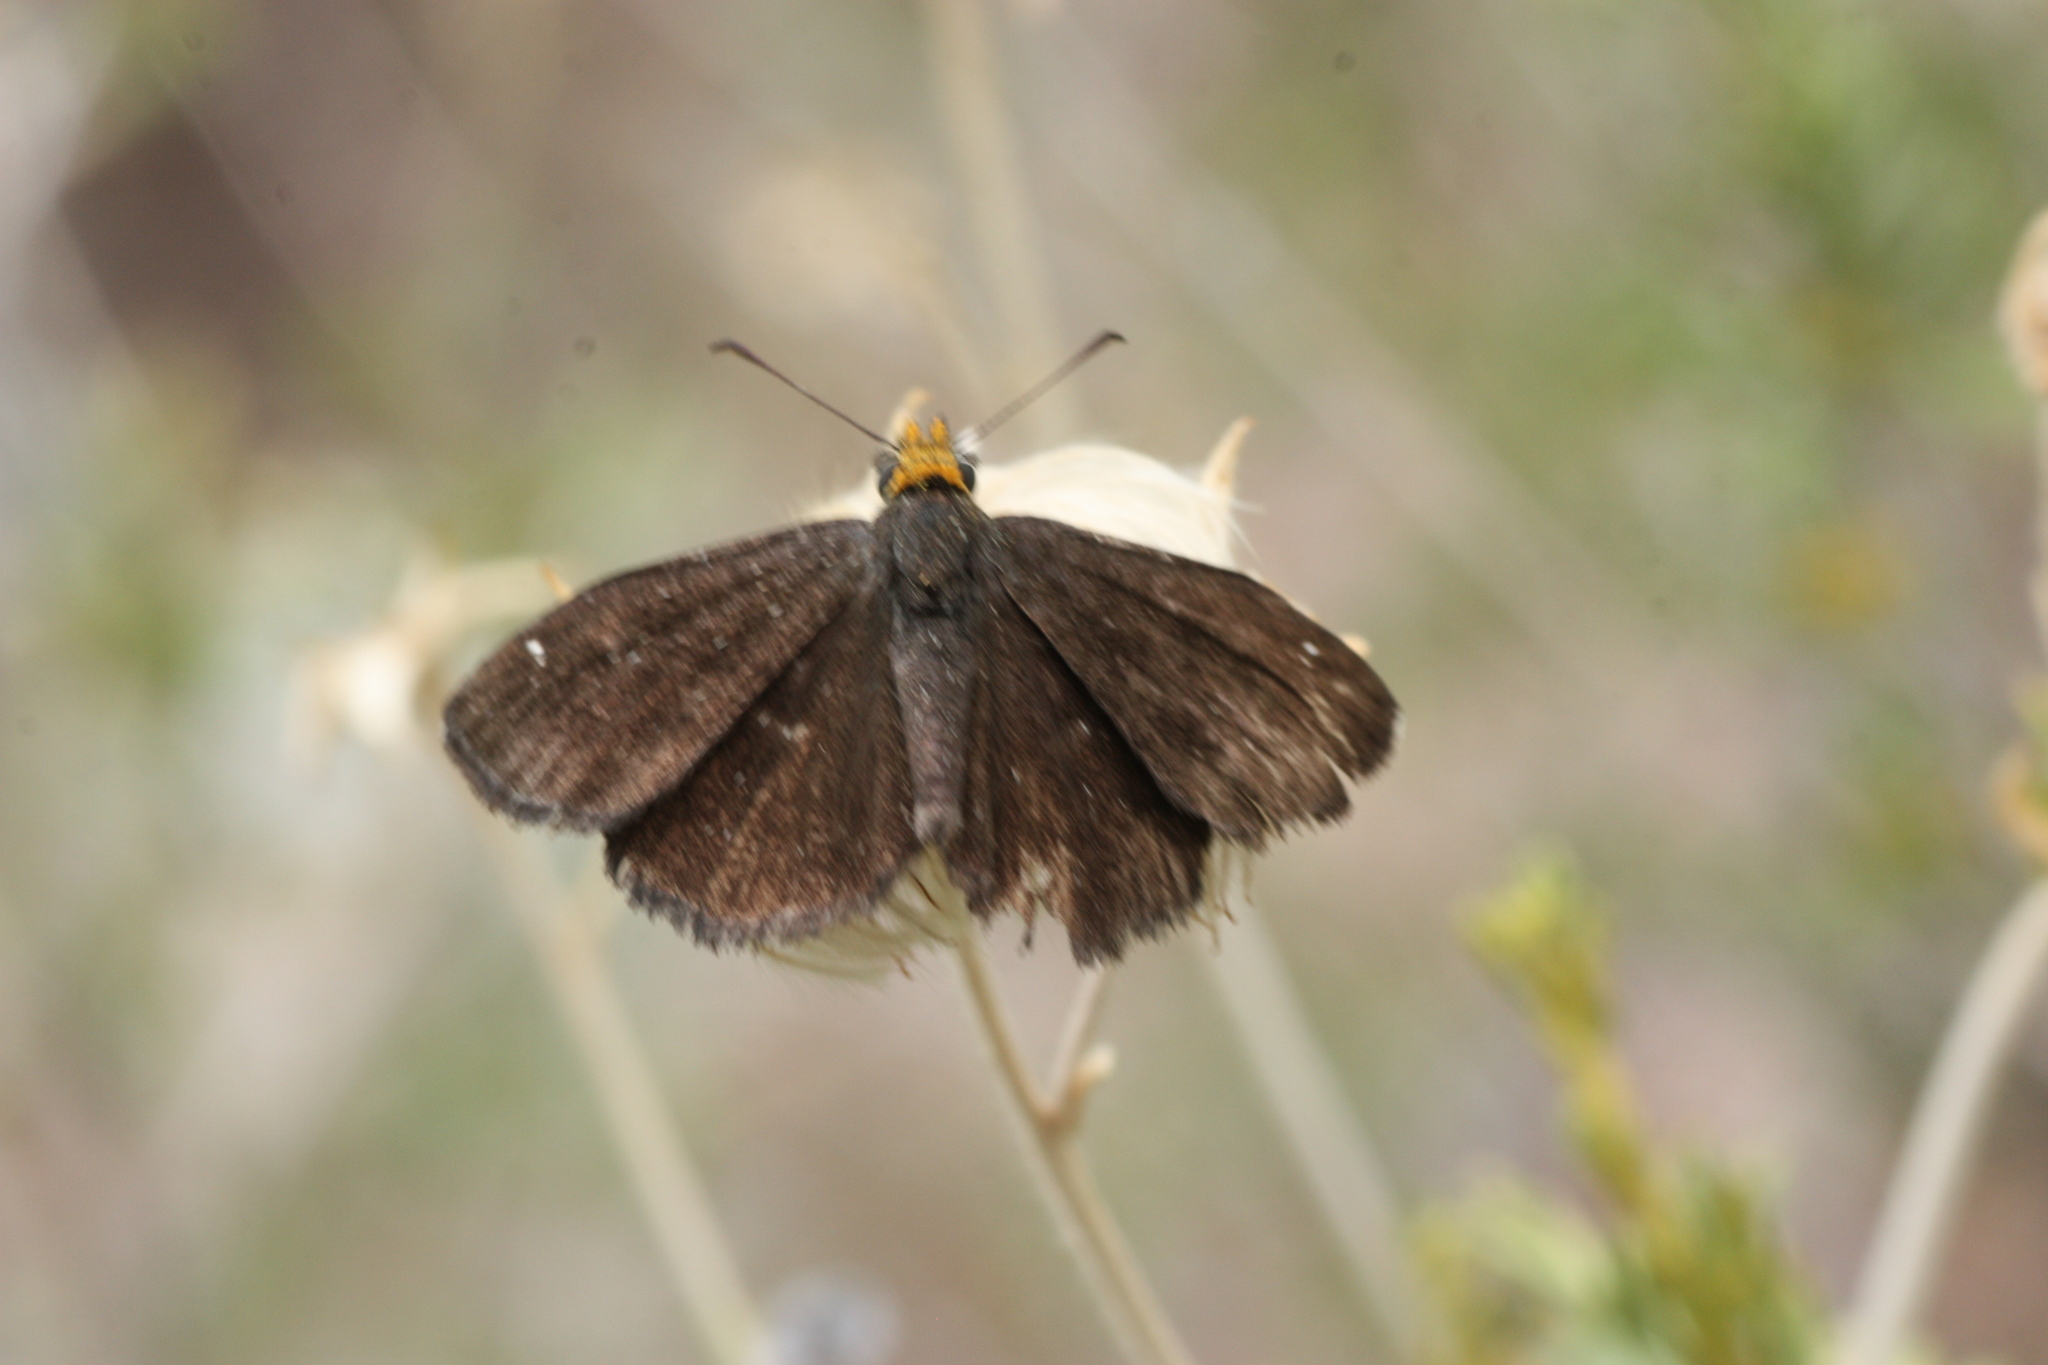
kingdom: Animalia
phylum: Arthropoda
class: Insecta
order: Lepidoptera
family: Hesperiidae
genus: Staphylus
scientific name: Staphylus ceos
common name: Golden-headed scallopwing
